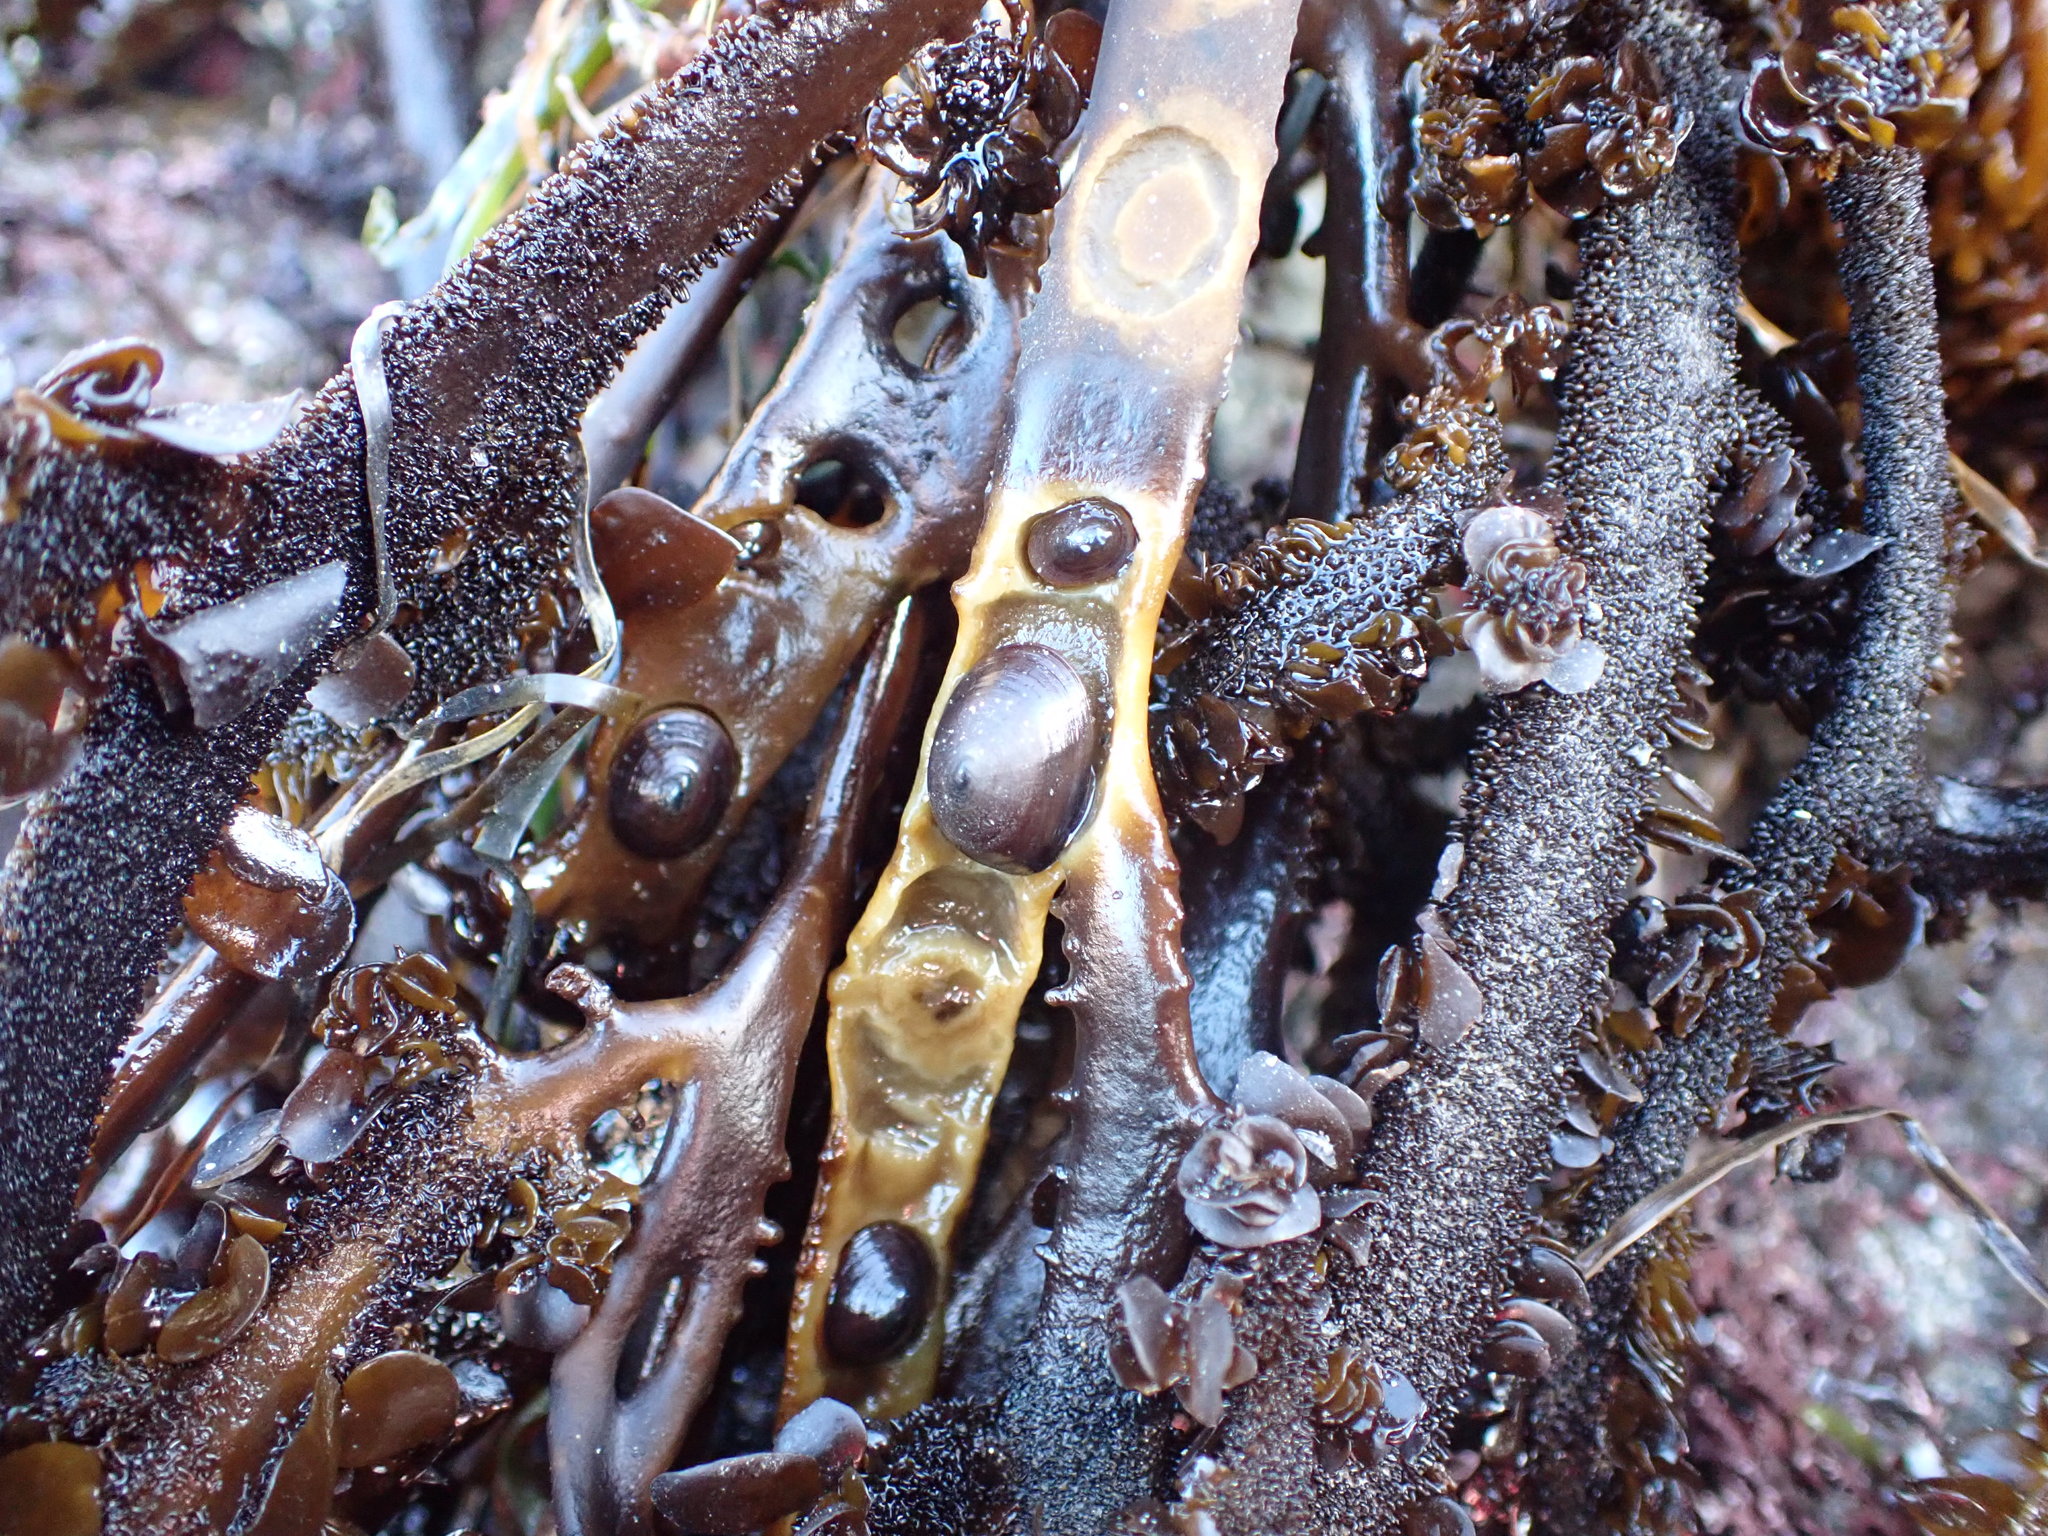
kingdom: Animalia
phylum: Mollusca
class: Gastropoda
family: Lottiidae
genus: Discurria
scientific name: Discurria insessa
